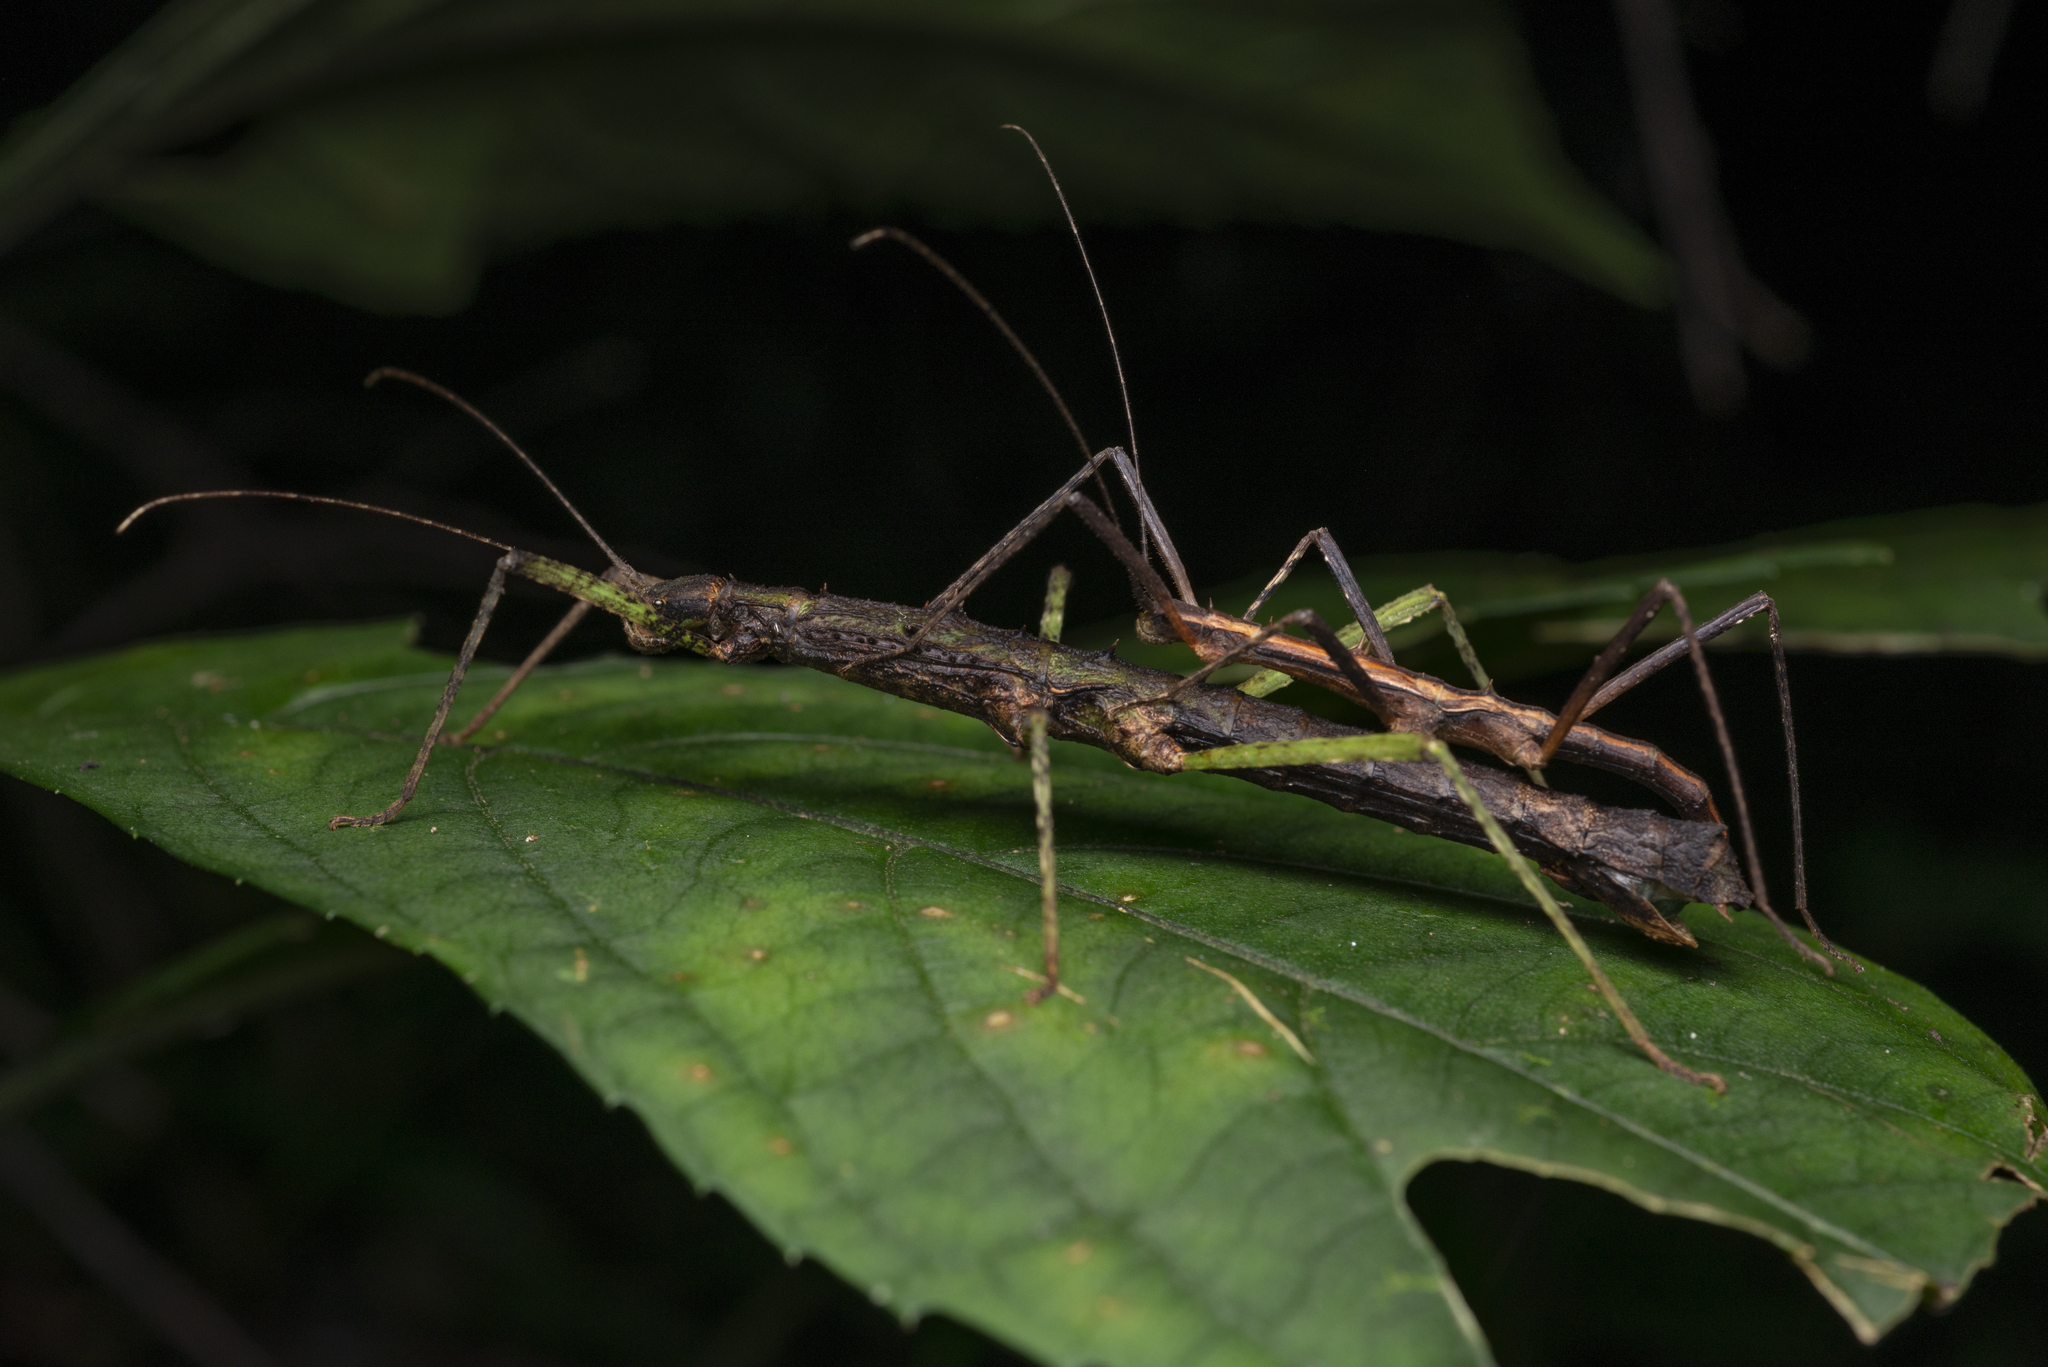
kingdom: Animalia
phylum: Arthropoda
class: Insecta
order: Phasmida
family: Lonchodidae
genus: Neohirasea
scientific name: Neohirasea hongkongensis
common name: Hong kong spiny stick insect
